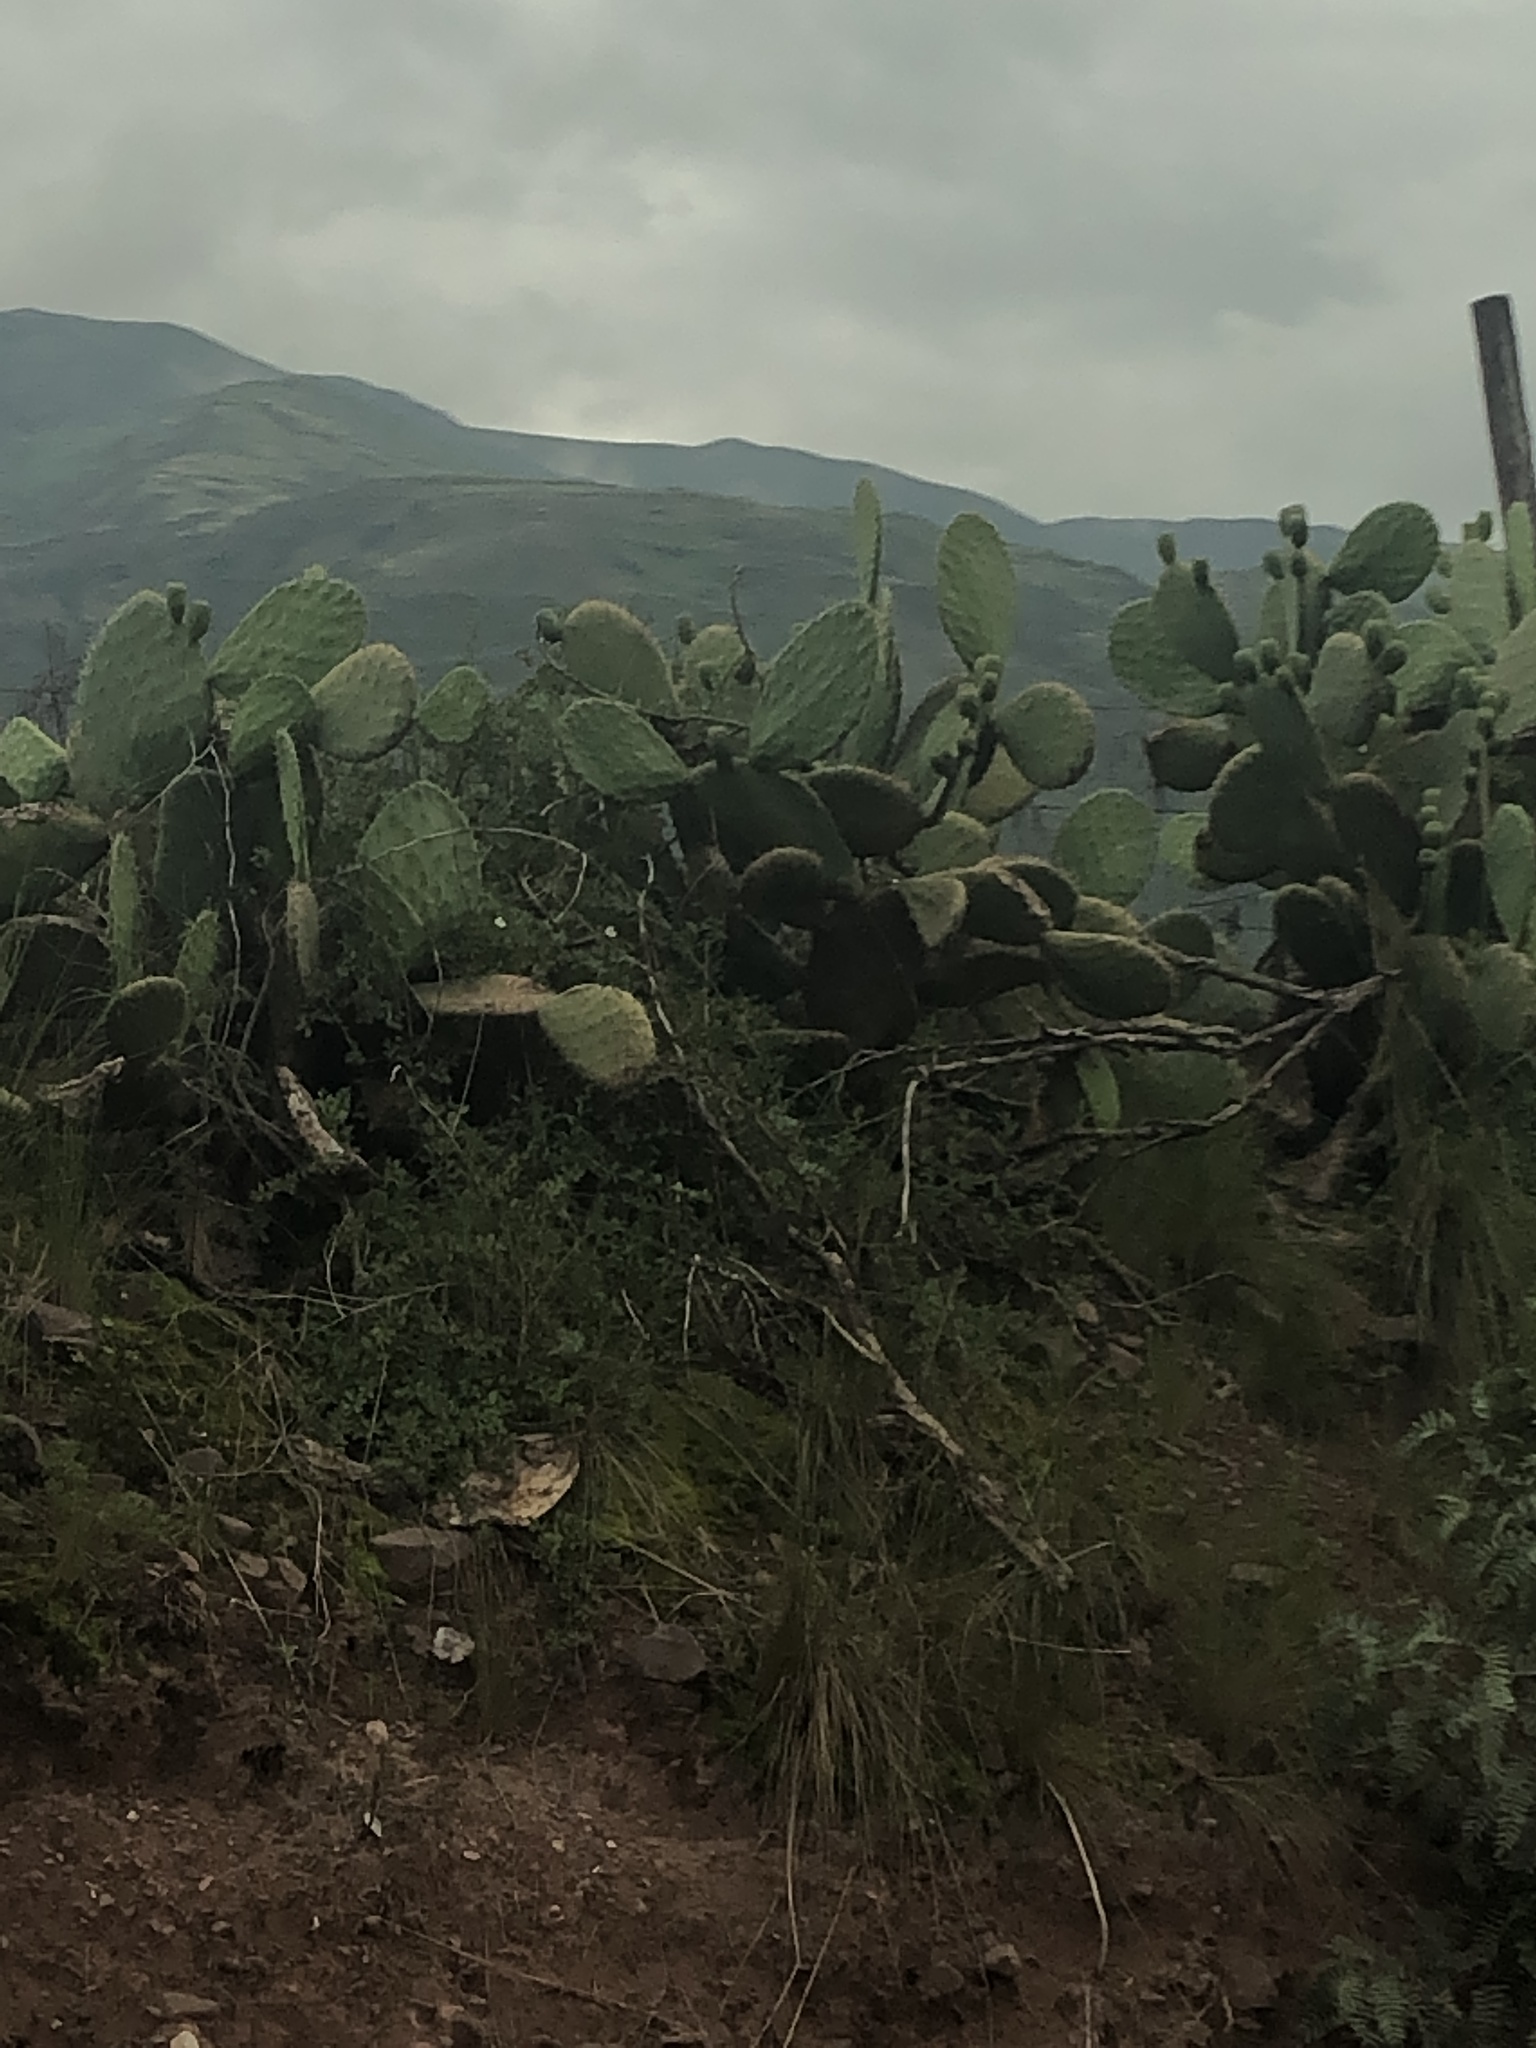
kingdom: Plantae
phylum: Tracheophyta
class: Magnoliopsida
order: Caryophyllales
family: Cactaceae
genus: Opuntia
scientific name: Opuntia ficus-indica
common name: Barbary fig
